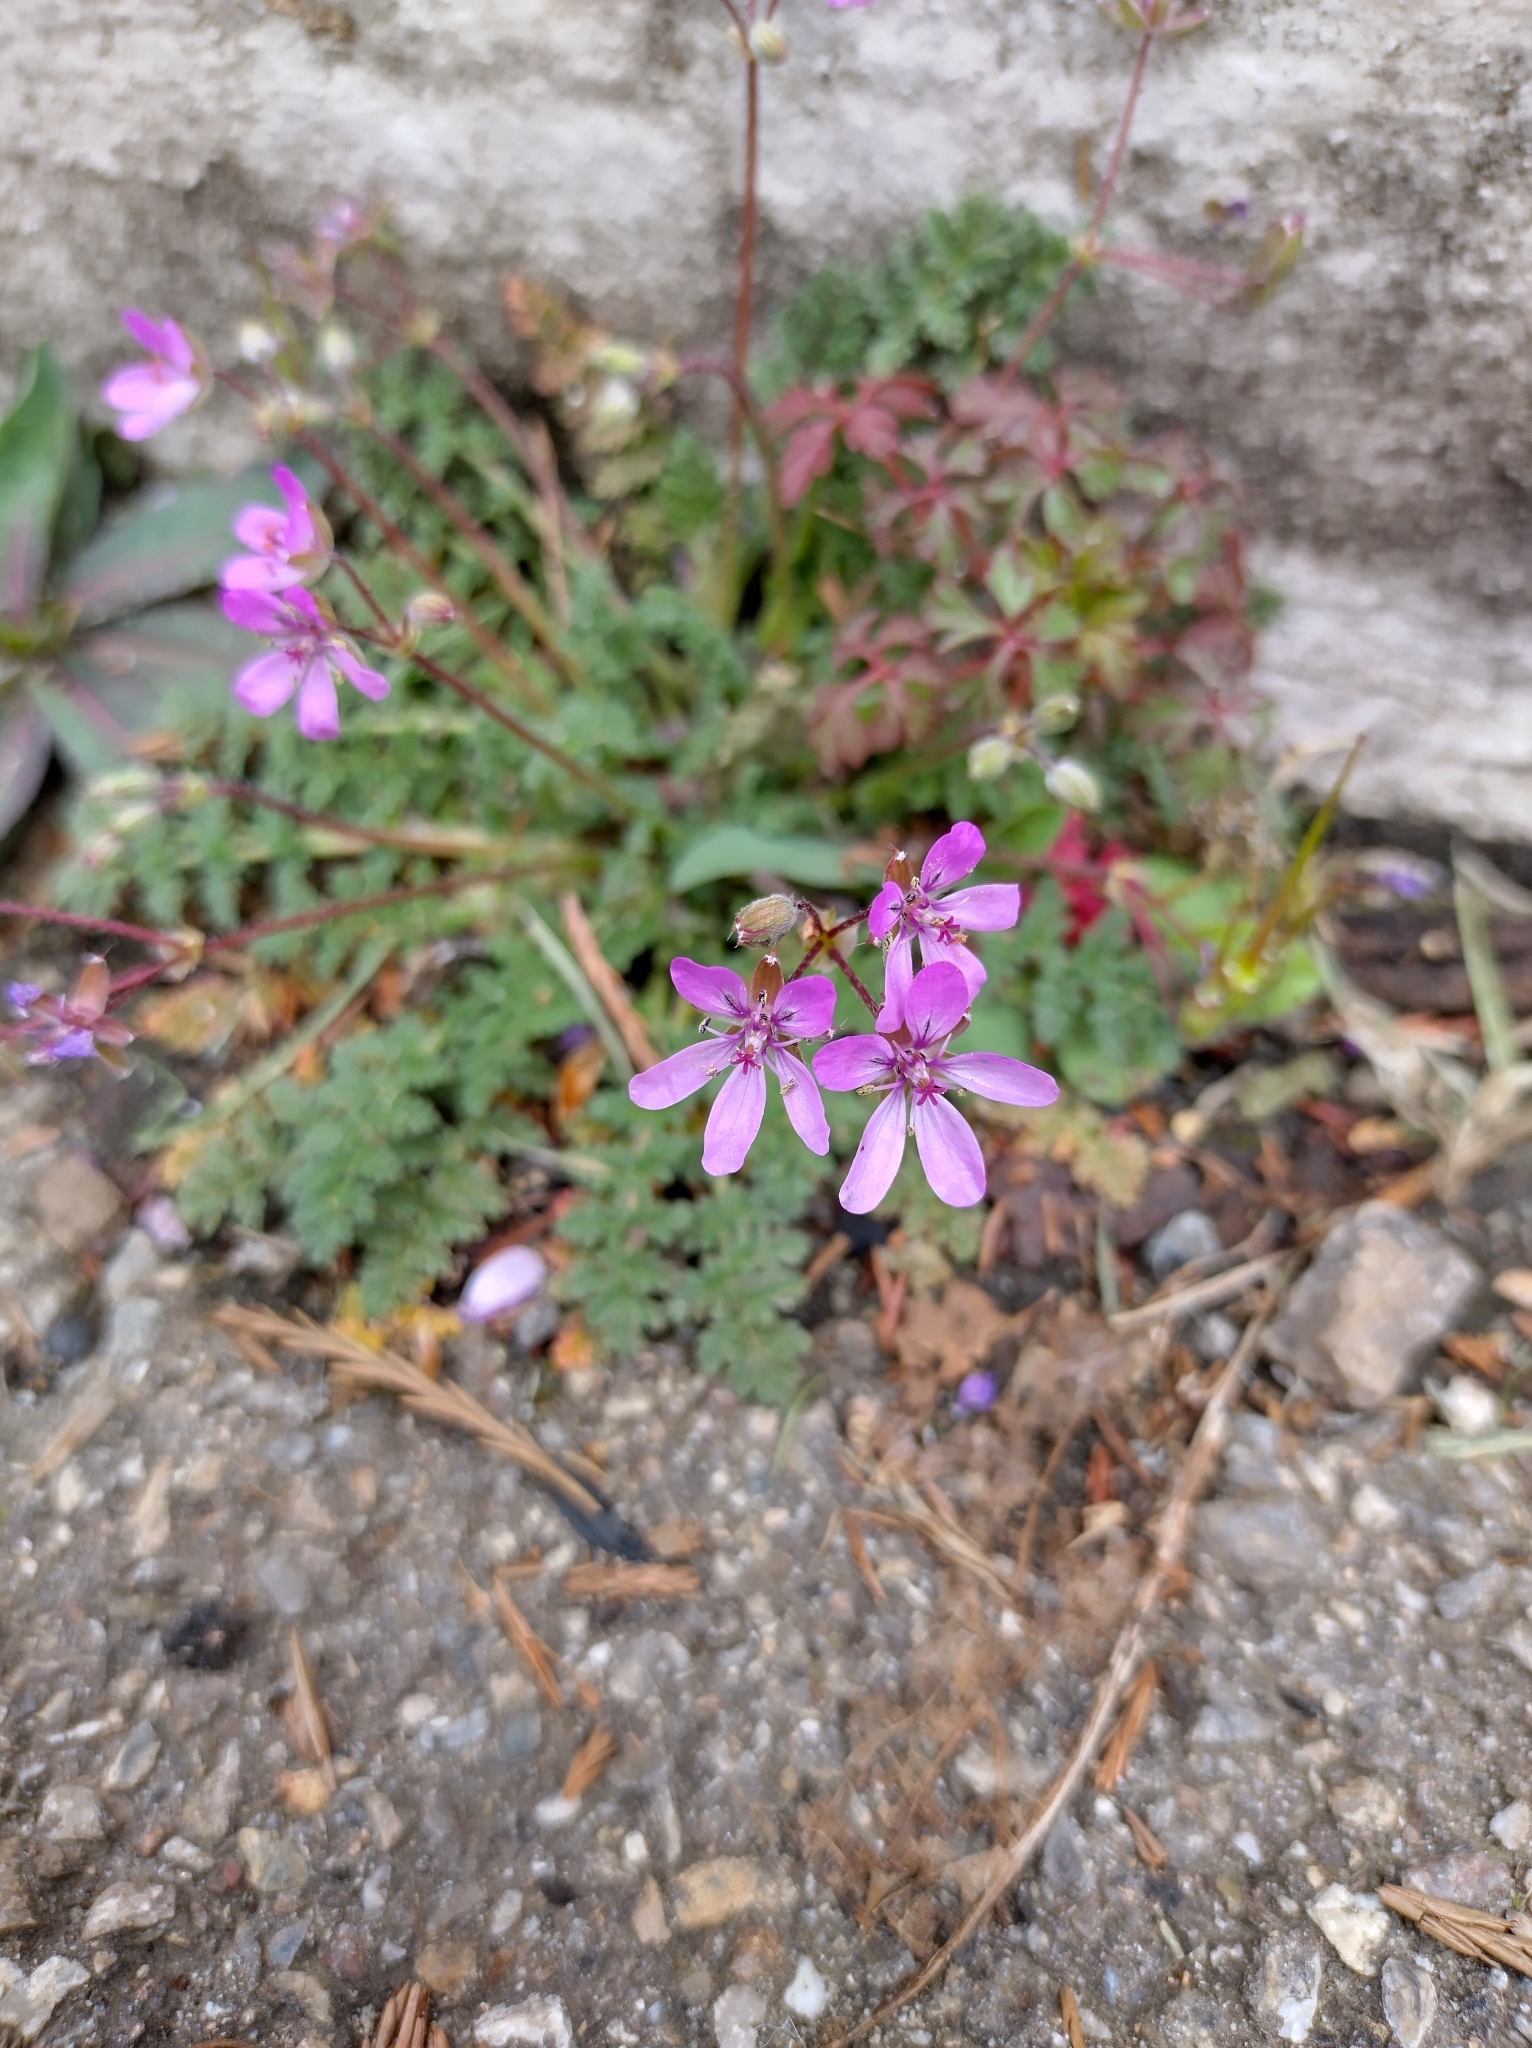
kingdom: Plantae
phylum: Tracheophyta
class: Magnoliopsida
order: Geraniales
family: Geraniaceae
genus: Erodium
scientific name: Erodium cicutarium
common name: Common stork's-bill
